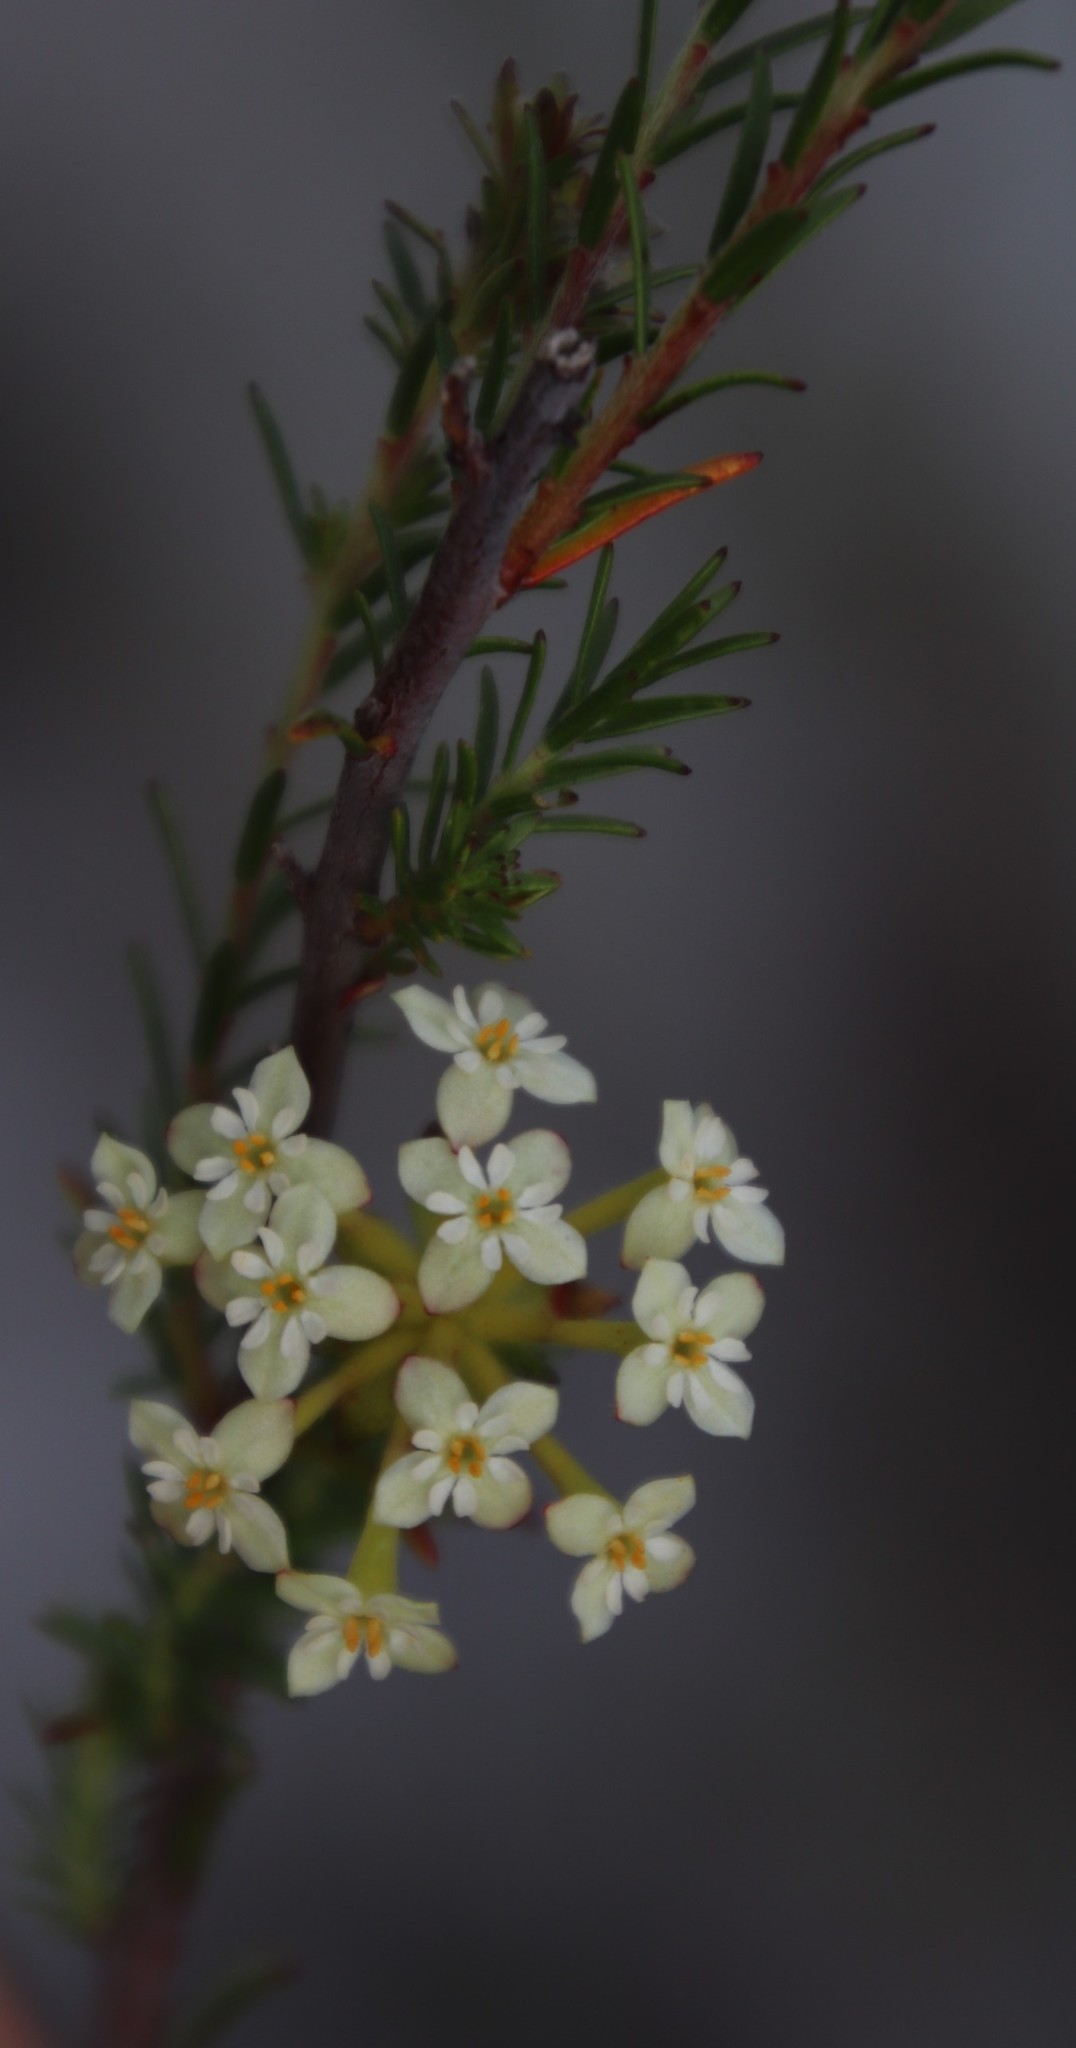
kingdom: Plantae
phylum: Tracheophyta
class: Magnoliopsida
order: Malvales
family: Thymelaeaceae
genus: Gnidia
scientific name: Gnidia squarrosa
